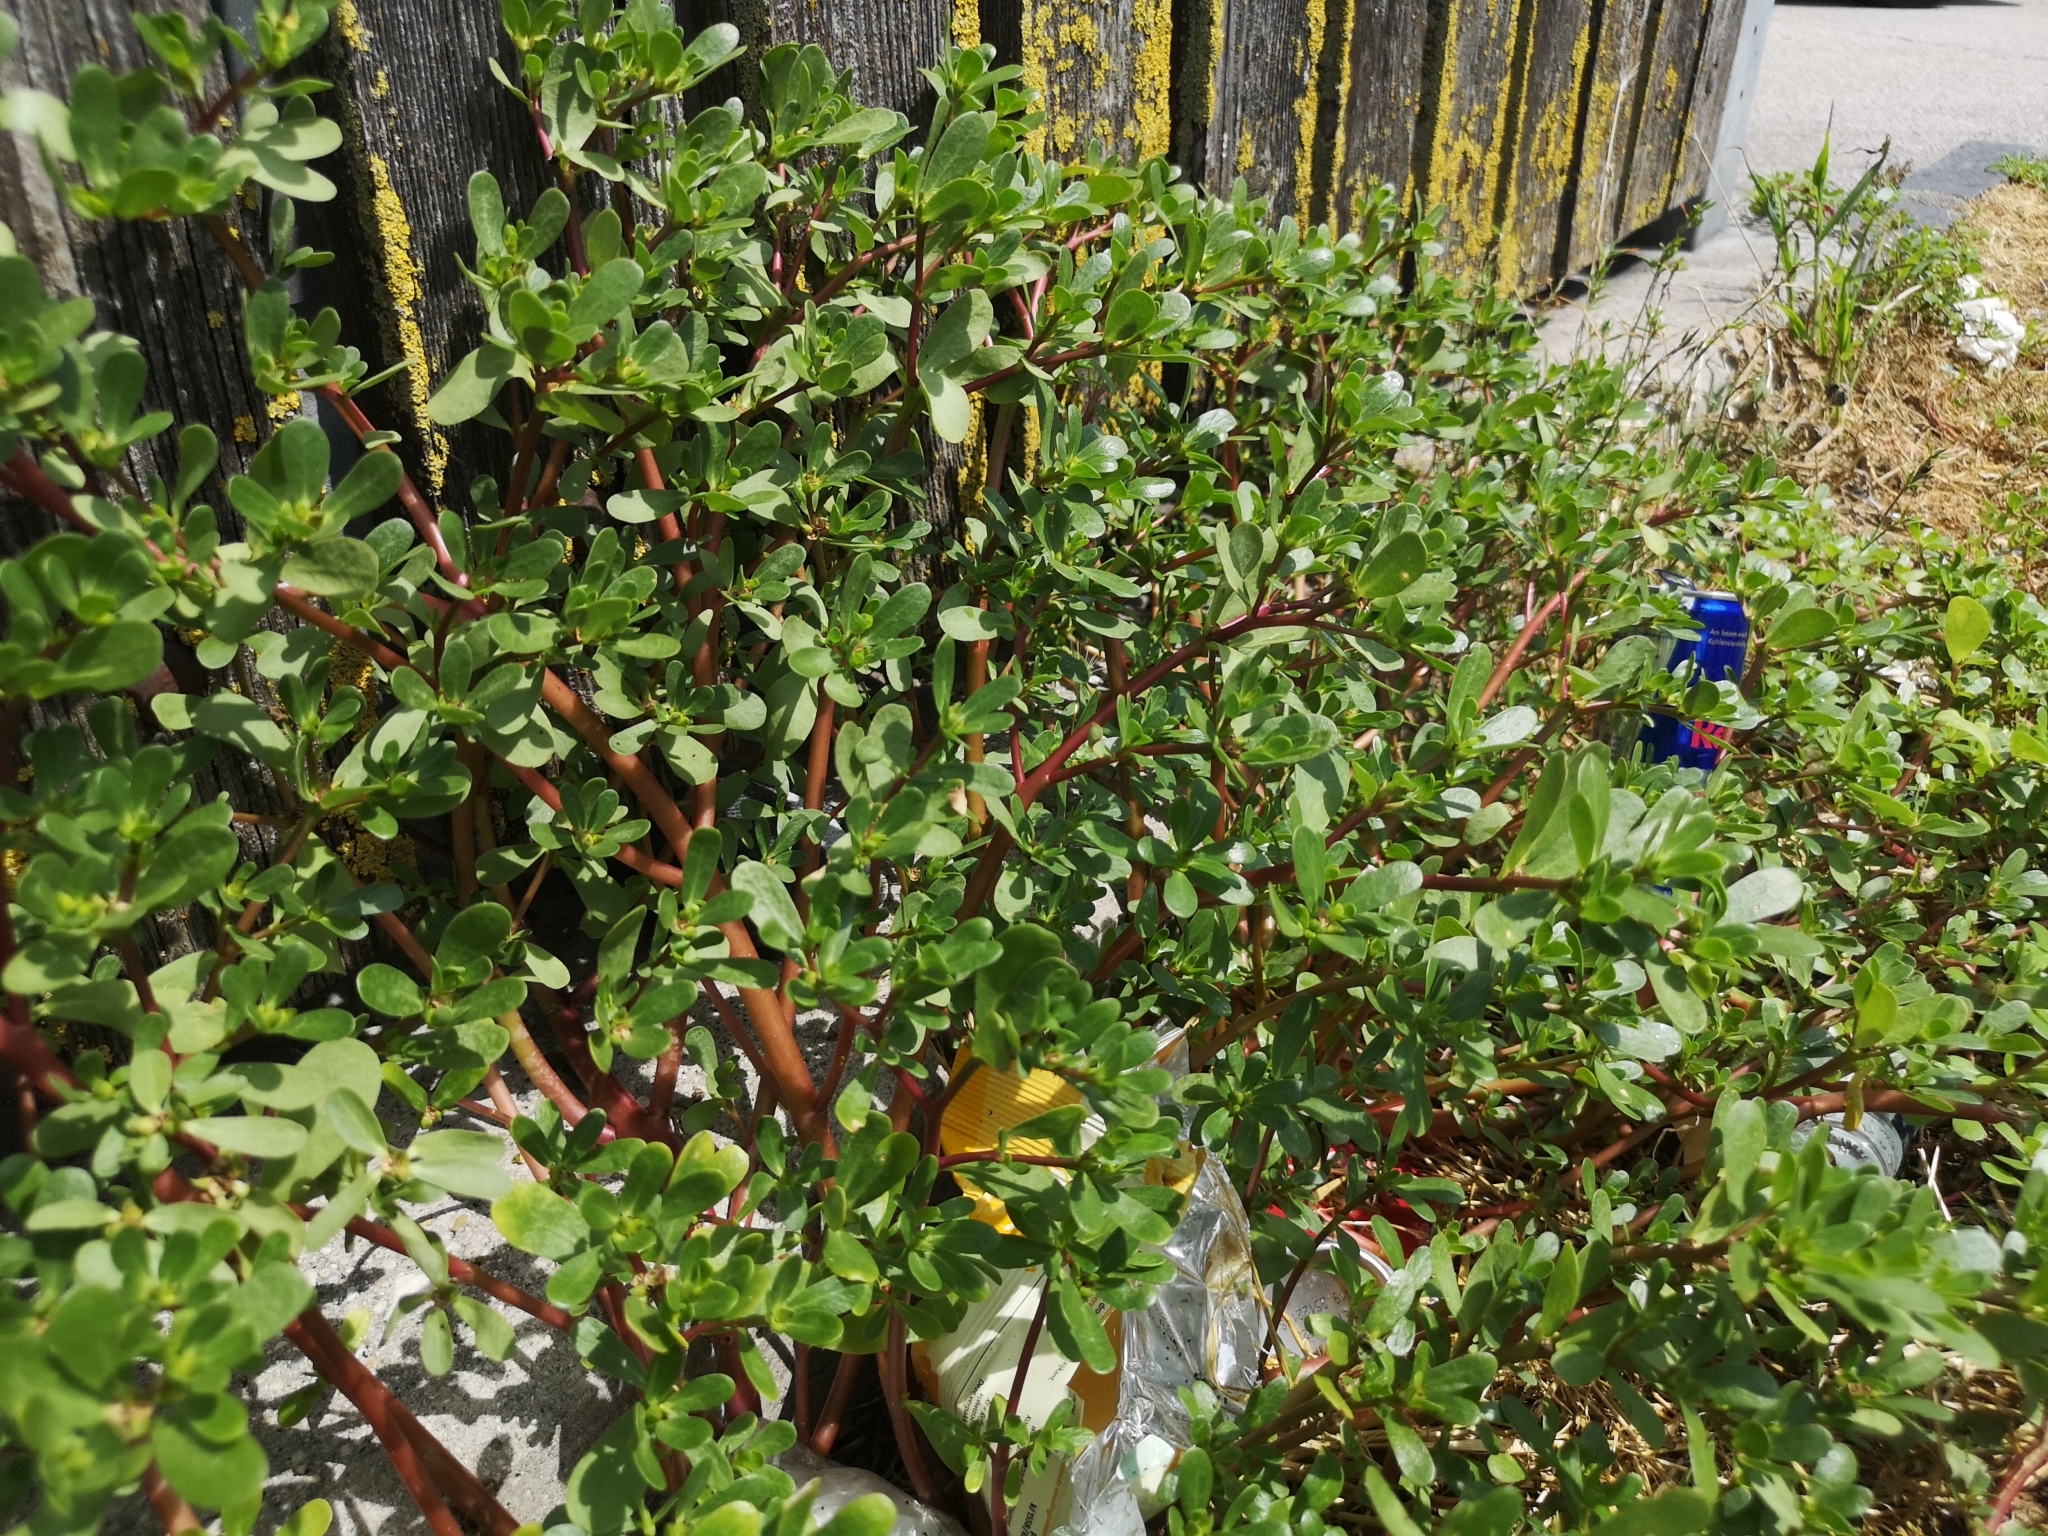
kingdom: Plantae
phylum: Tracheophyta
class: Magnoliopsida
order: Caryophyllales
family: Portulacaceae
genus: Portulaca
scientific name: Portulaca oleracea
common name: Common purslane
